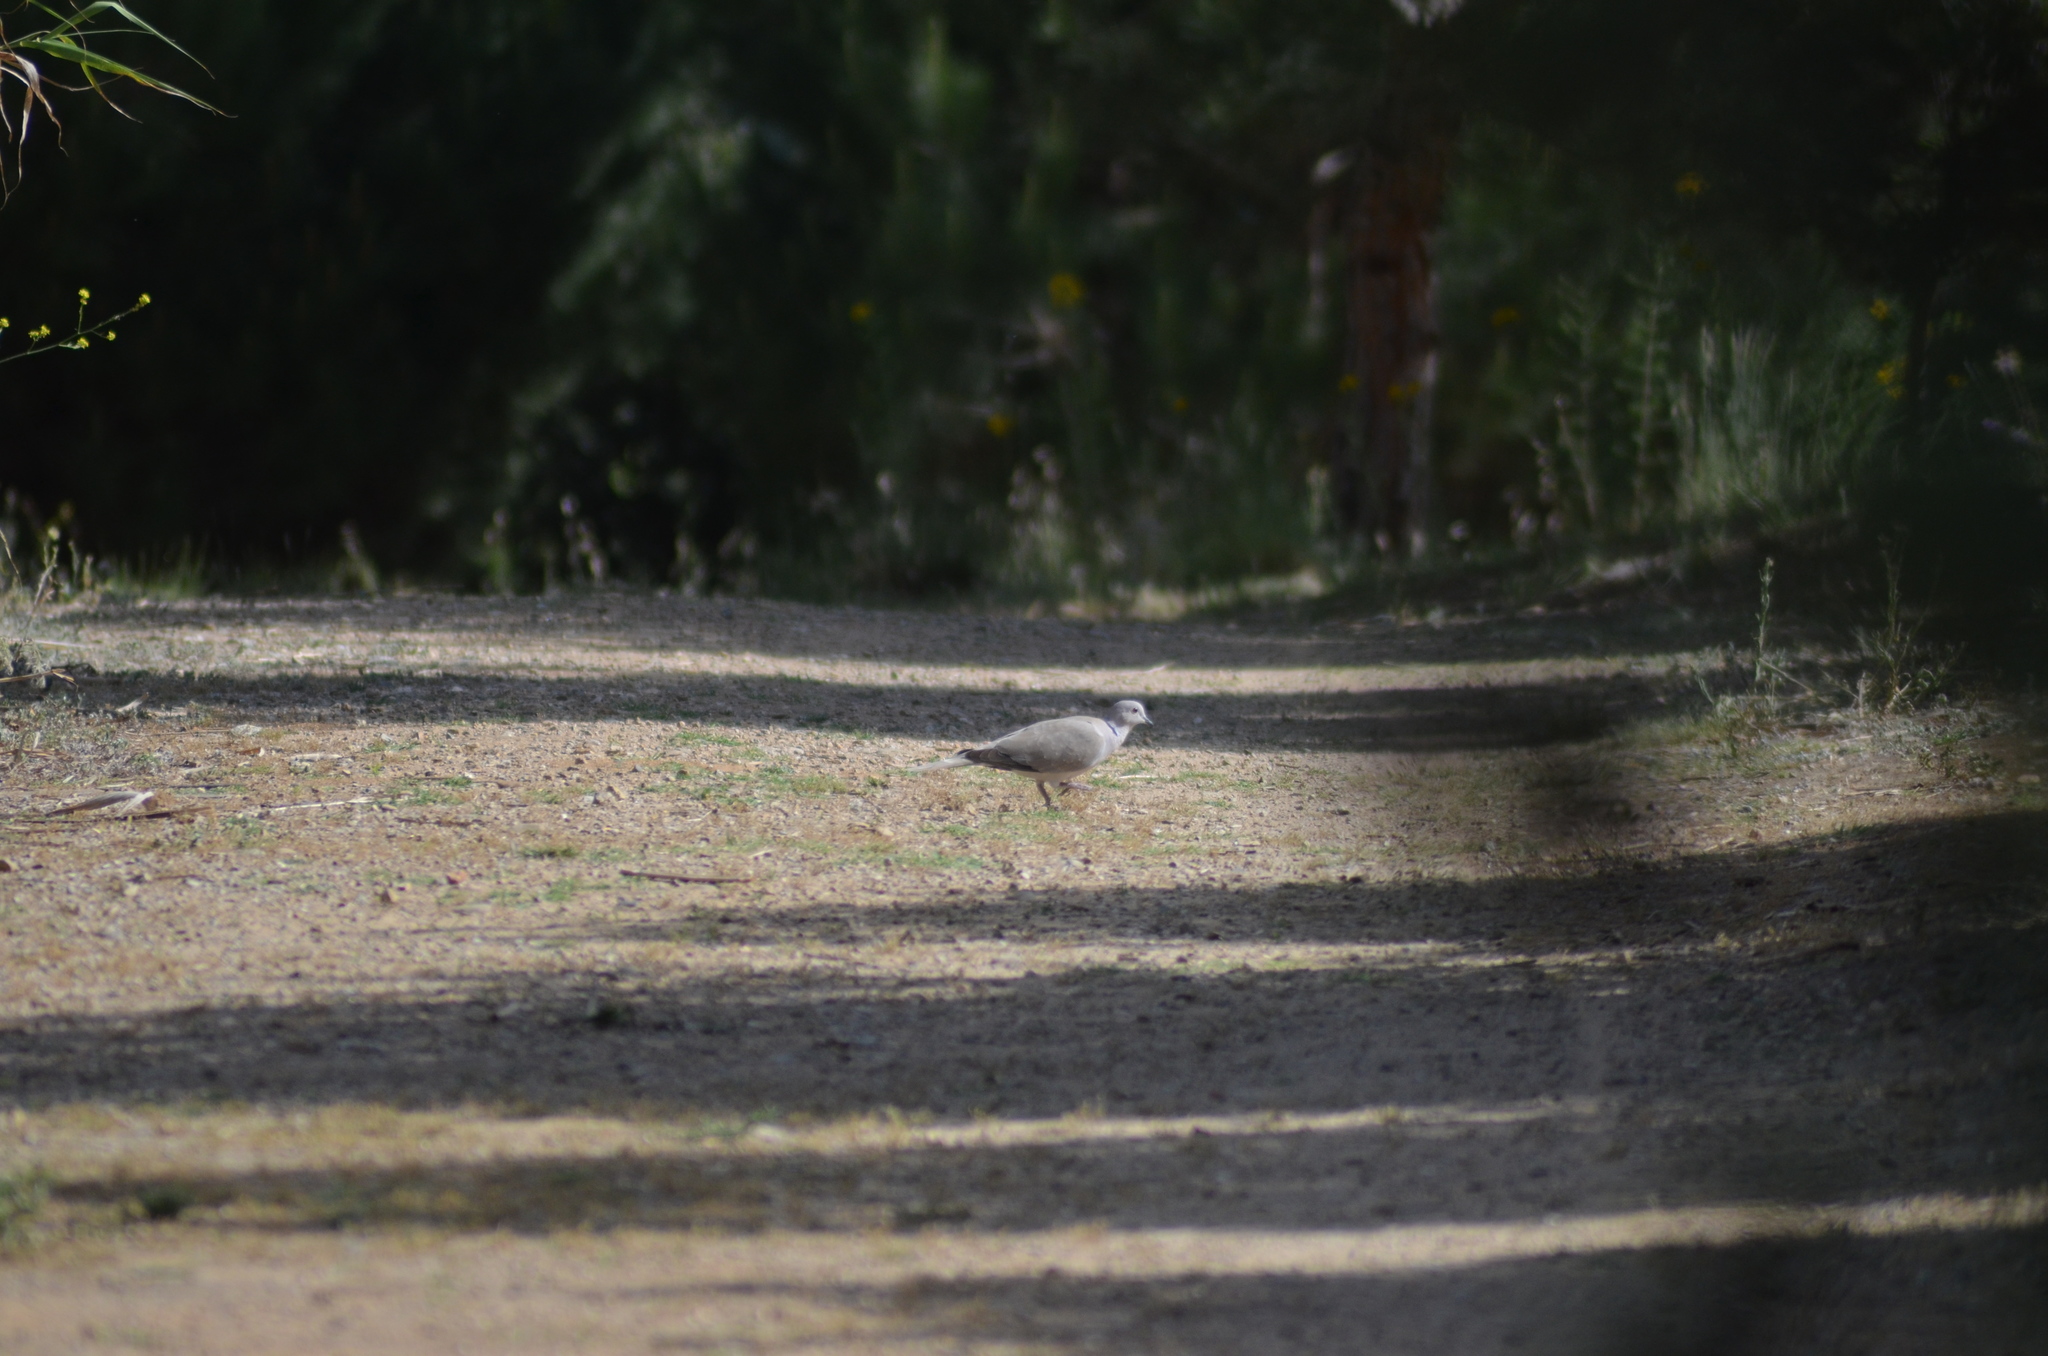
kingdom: Animalia
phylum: Chordata
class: Aves
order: Columbiformes
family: Columbidae
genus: Streptopelia
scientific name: Streptopelia decaocto
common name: Eurasian collared dove
